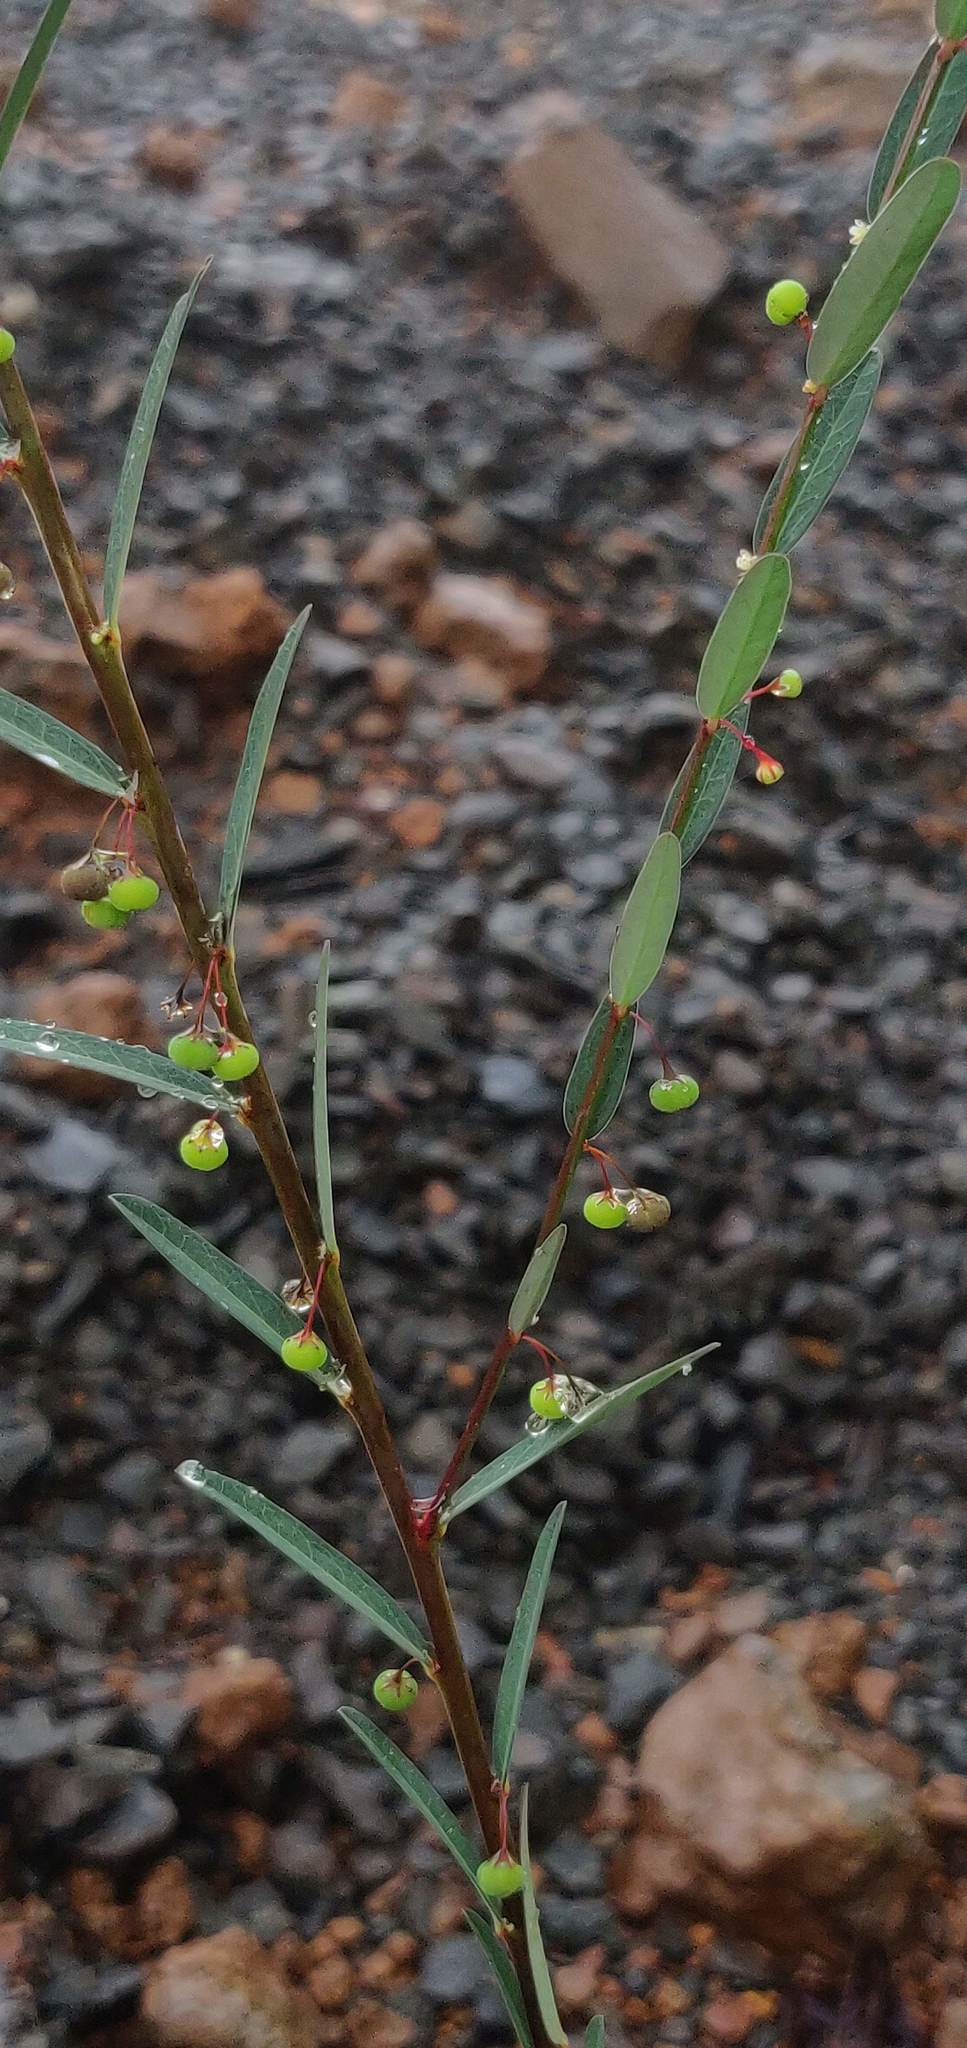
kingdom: Plantae
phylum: Tracheophyta
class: Magnoliopsida
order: Malpighiales
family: Phyllanthaceae
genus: Phyllanthus
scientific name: Phyllanthus virgatus
